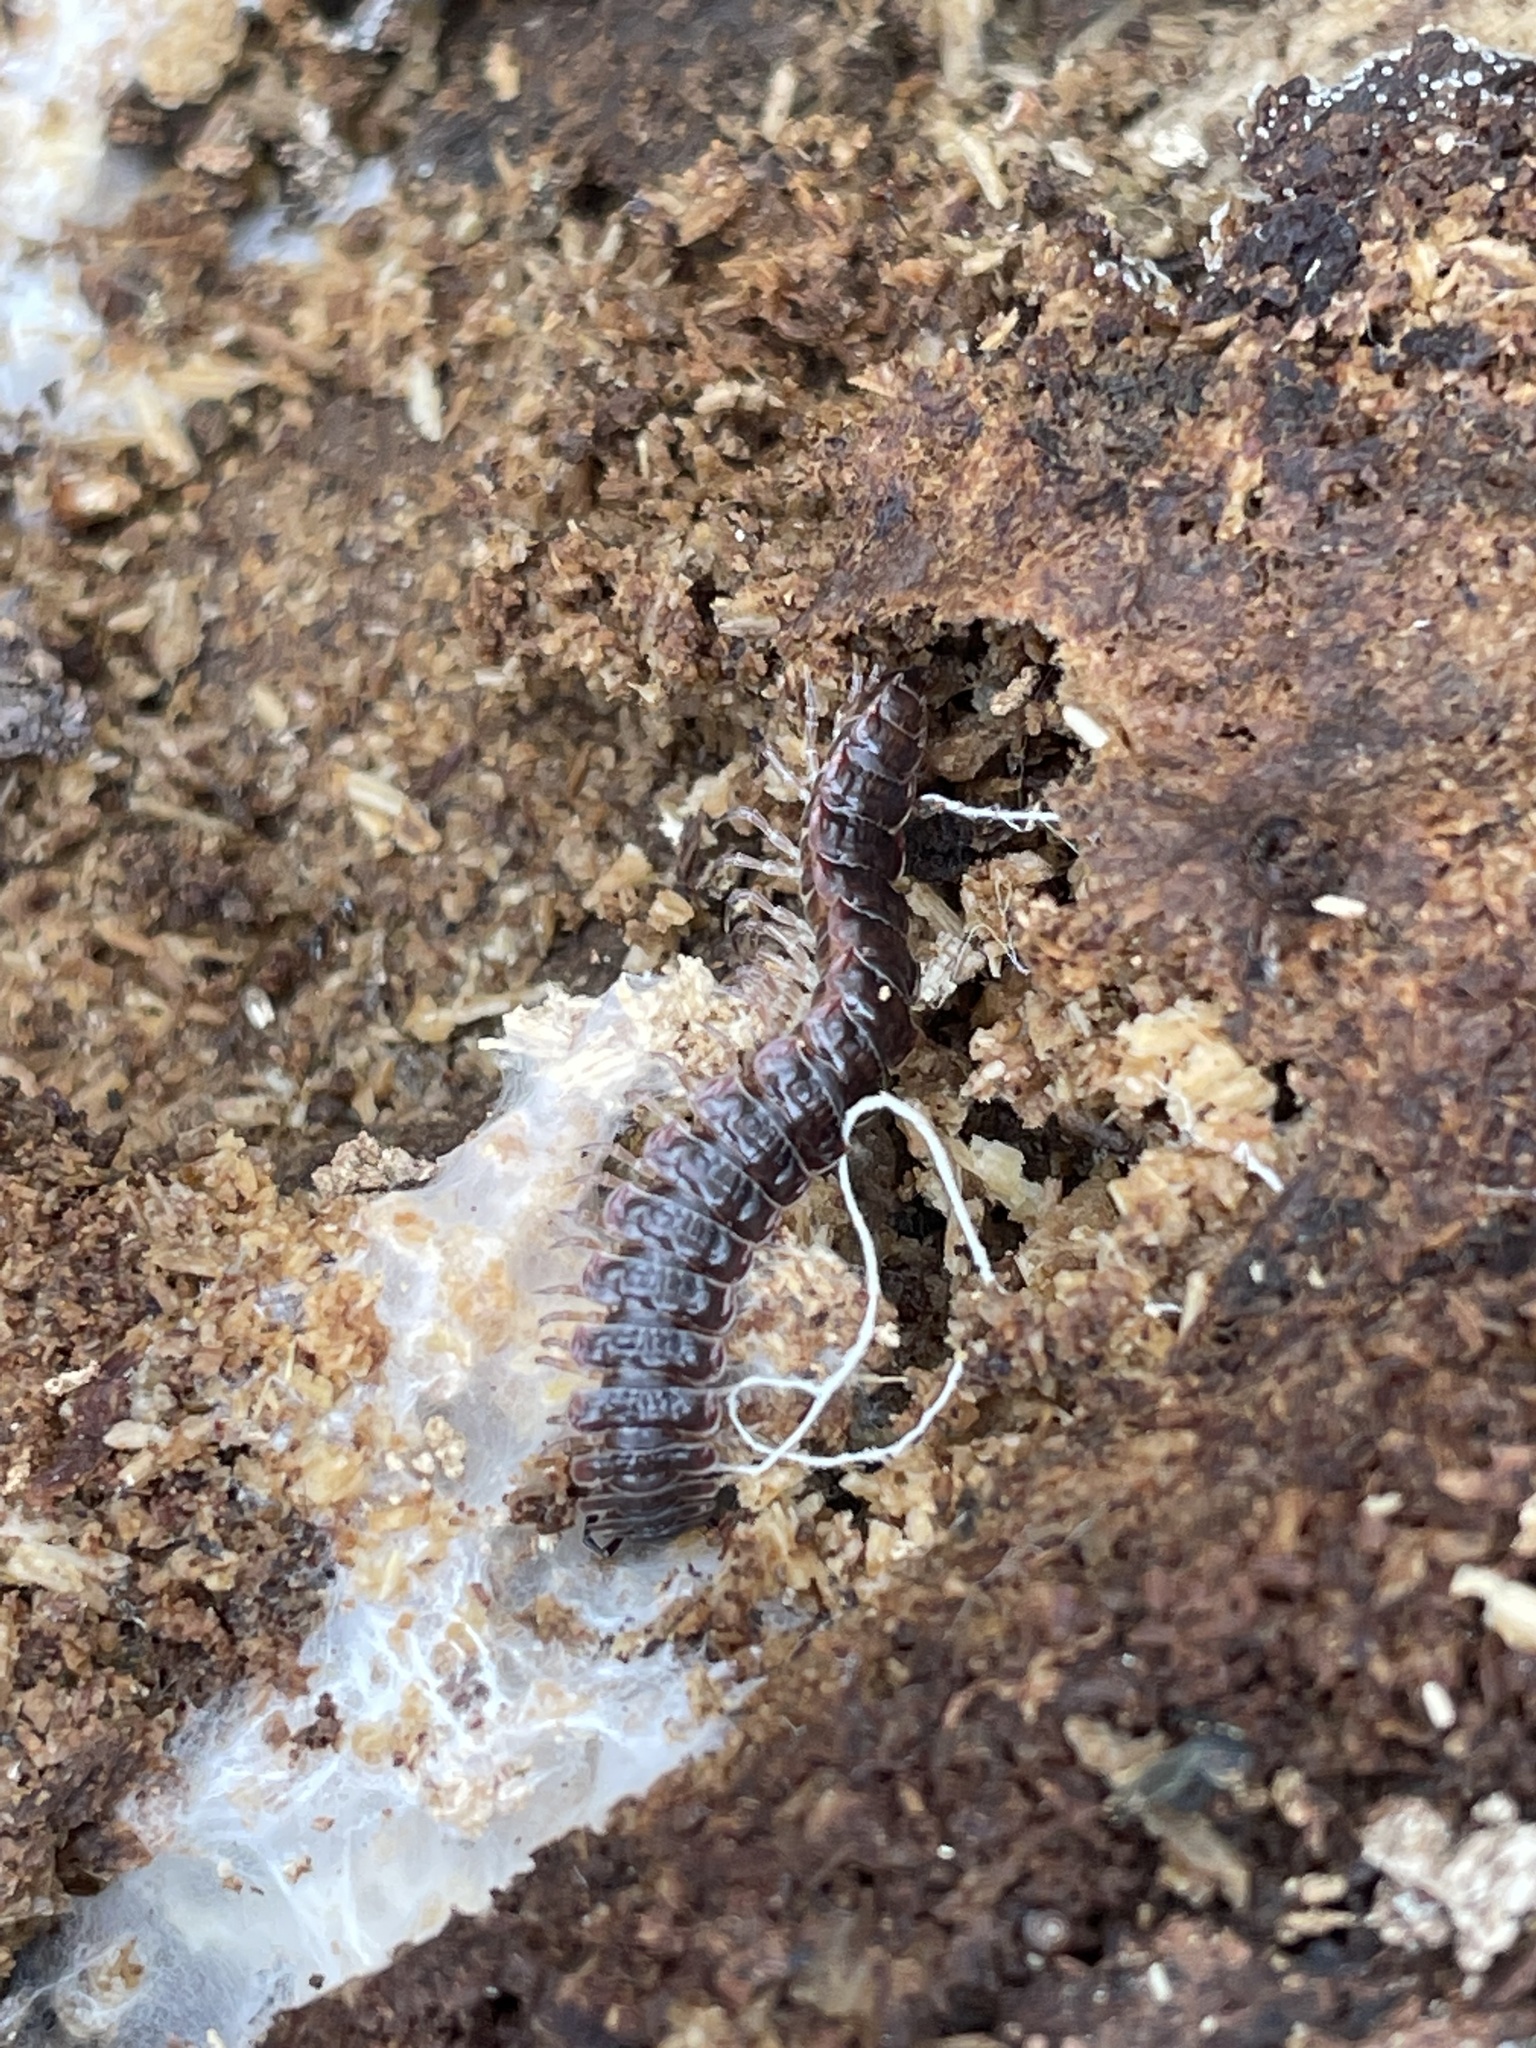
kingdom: Animalia
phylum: Arthropoda
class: Diplopoda
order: Polydesmida
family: Polydesmidae
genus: Pseudopolydesmus
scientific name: Pseudopolydesmus serratus
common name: Common pink flat-back millipede
